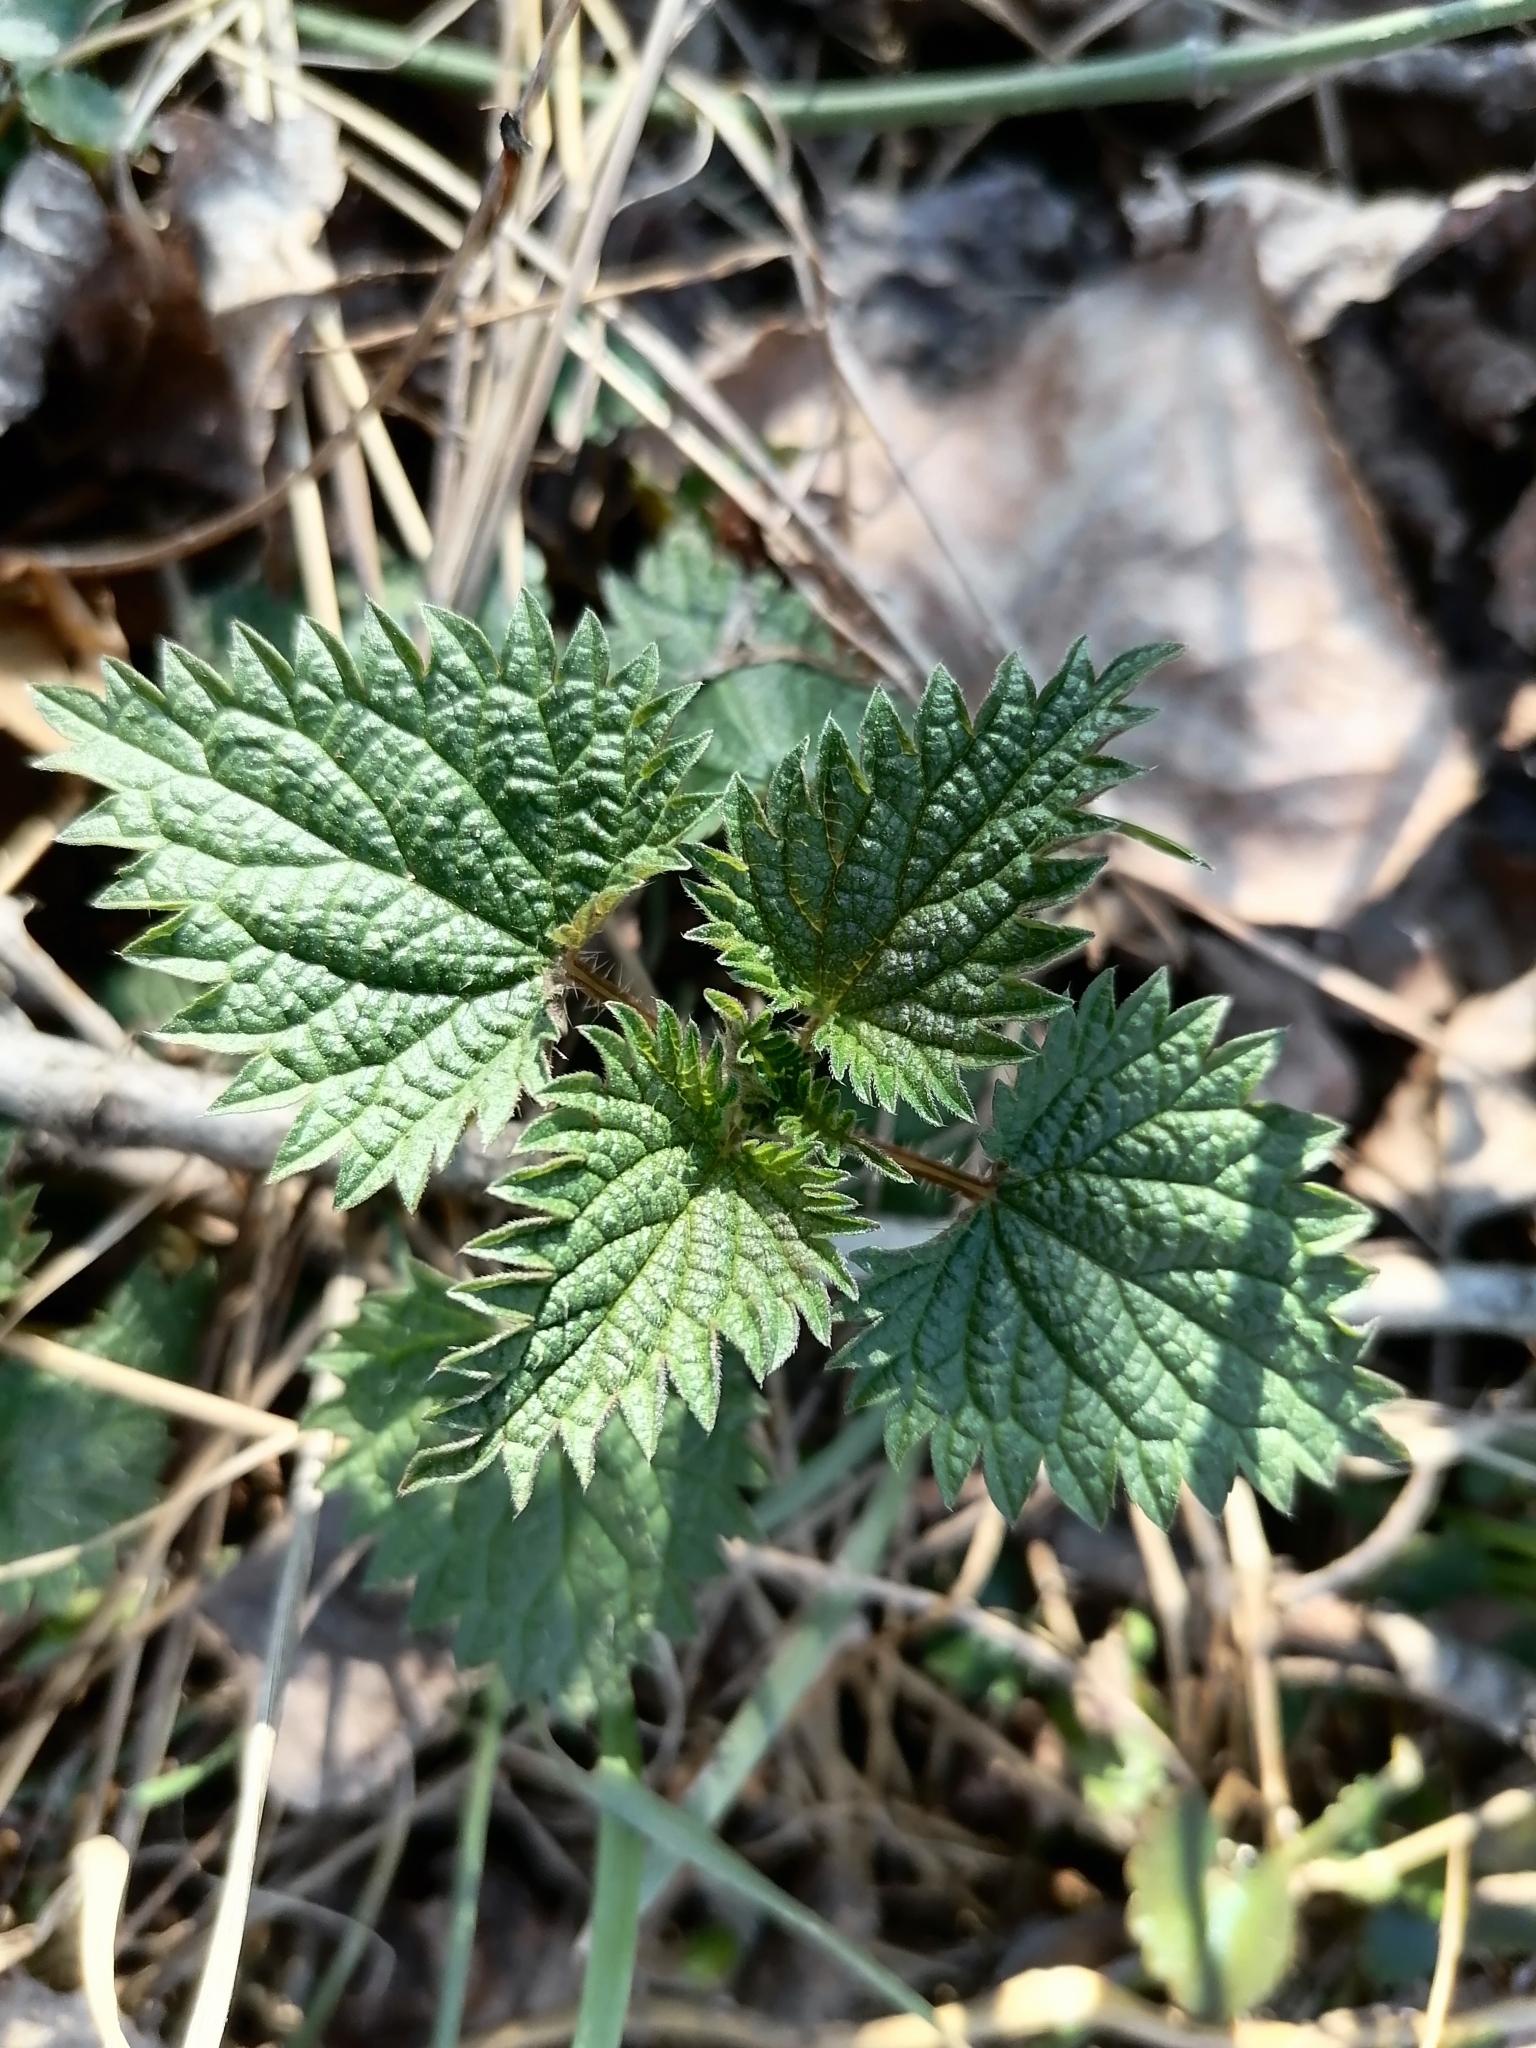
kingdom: Plantae
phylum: Tracheophyta
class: Magnoliopsida
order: Rosales
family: Urticaceae
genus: Urtica
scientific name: Urtica dioica
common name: Common nettle
